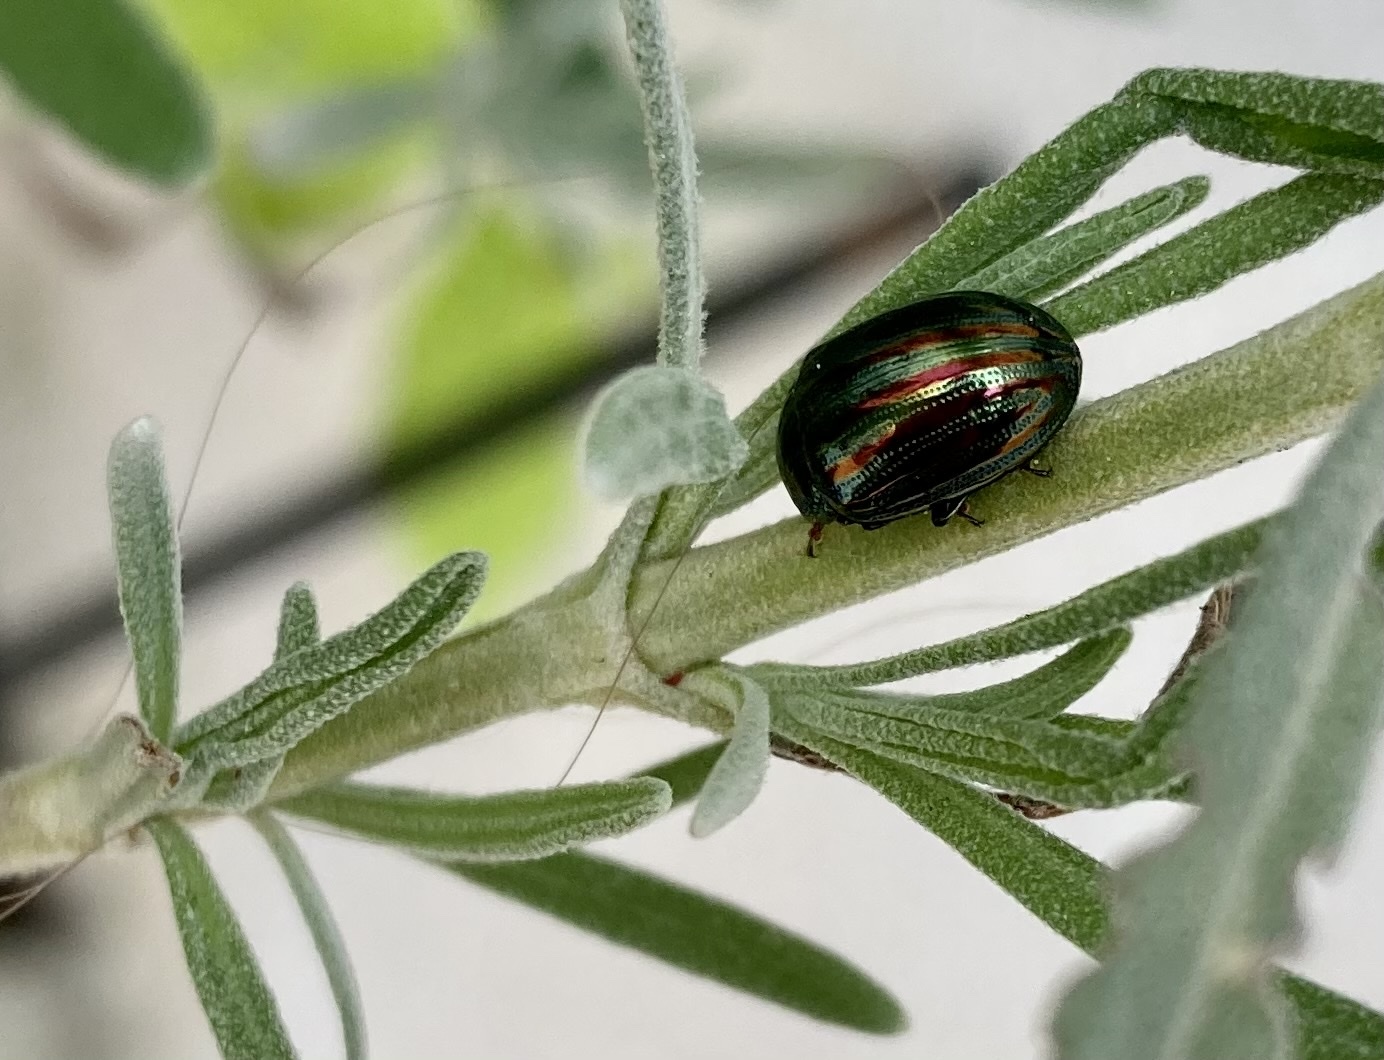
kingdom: Animalia
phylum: Arthropoda
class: Insecta
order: Coleoptera
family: Chrysomelidae
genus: Chrysolina
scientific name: Chrysolina americana
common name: Rosemary beetle
